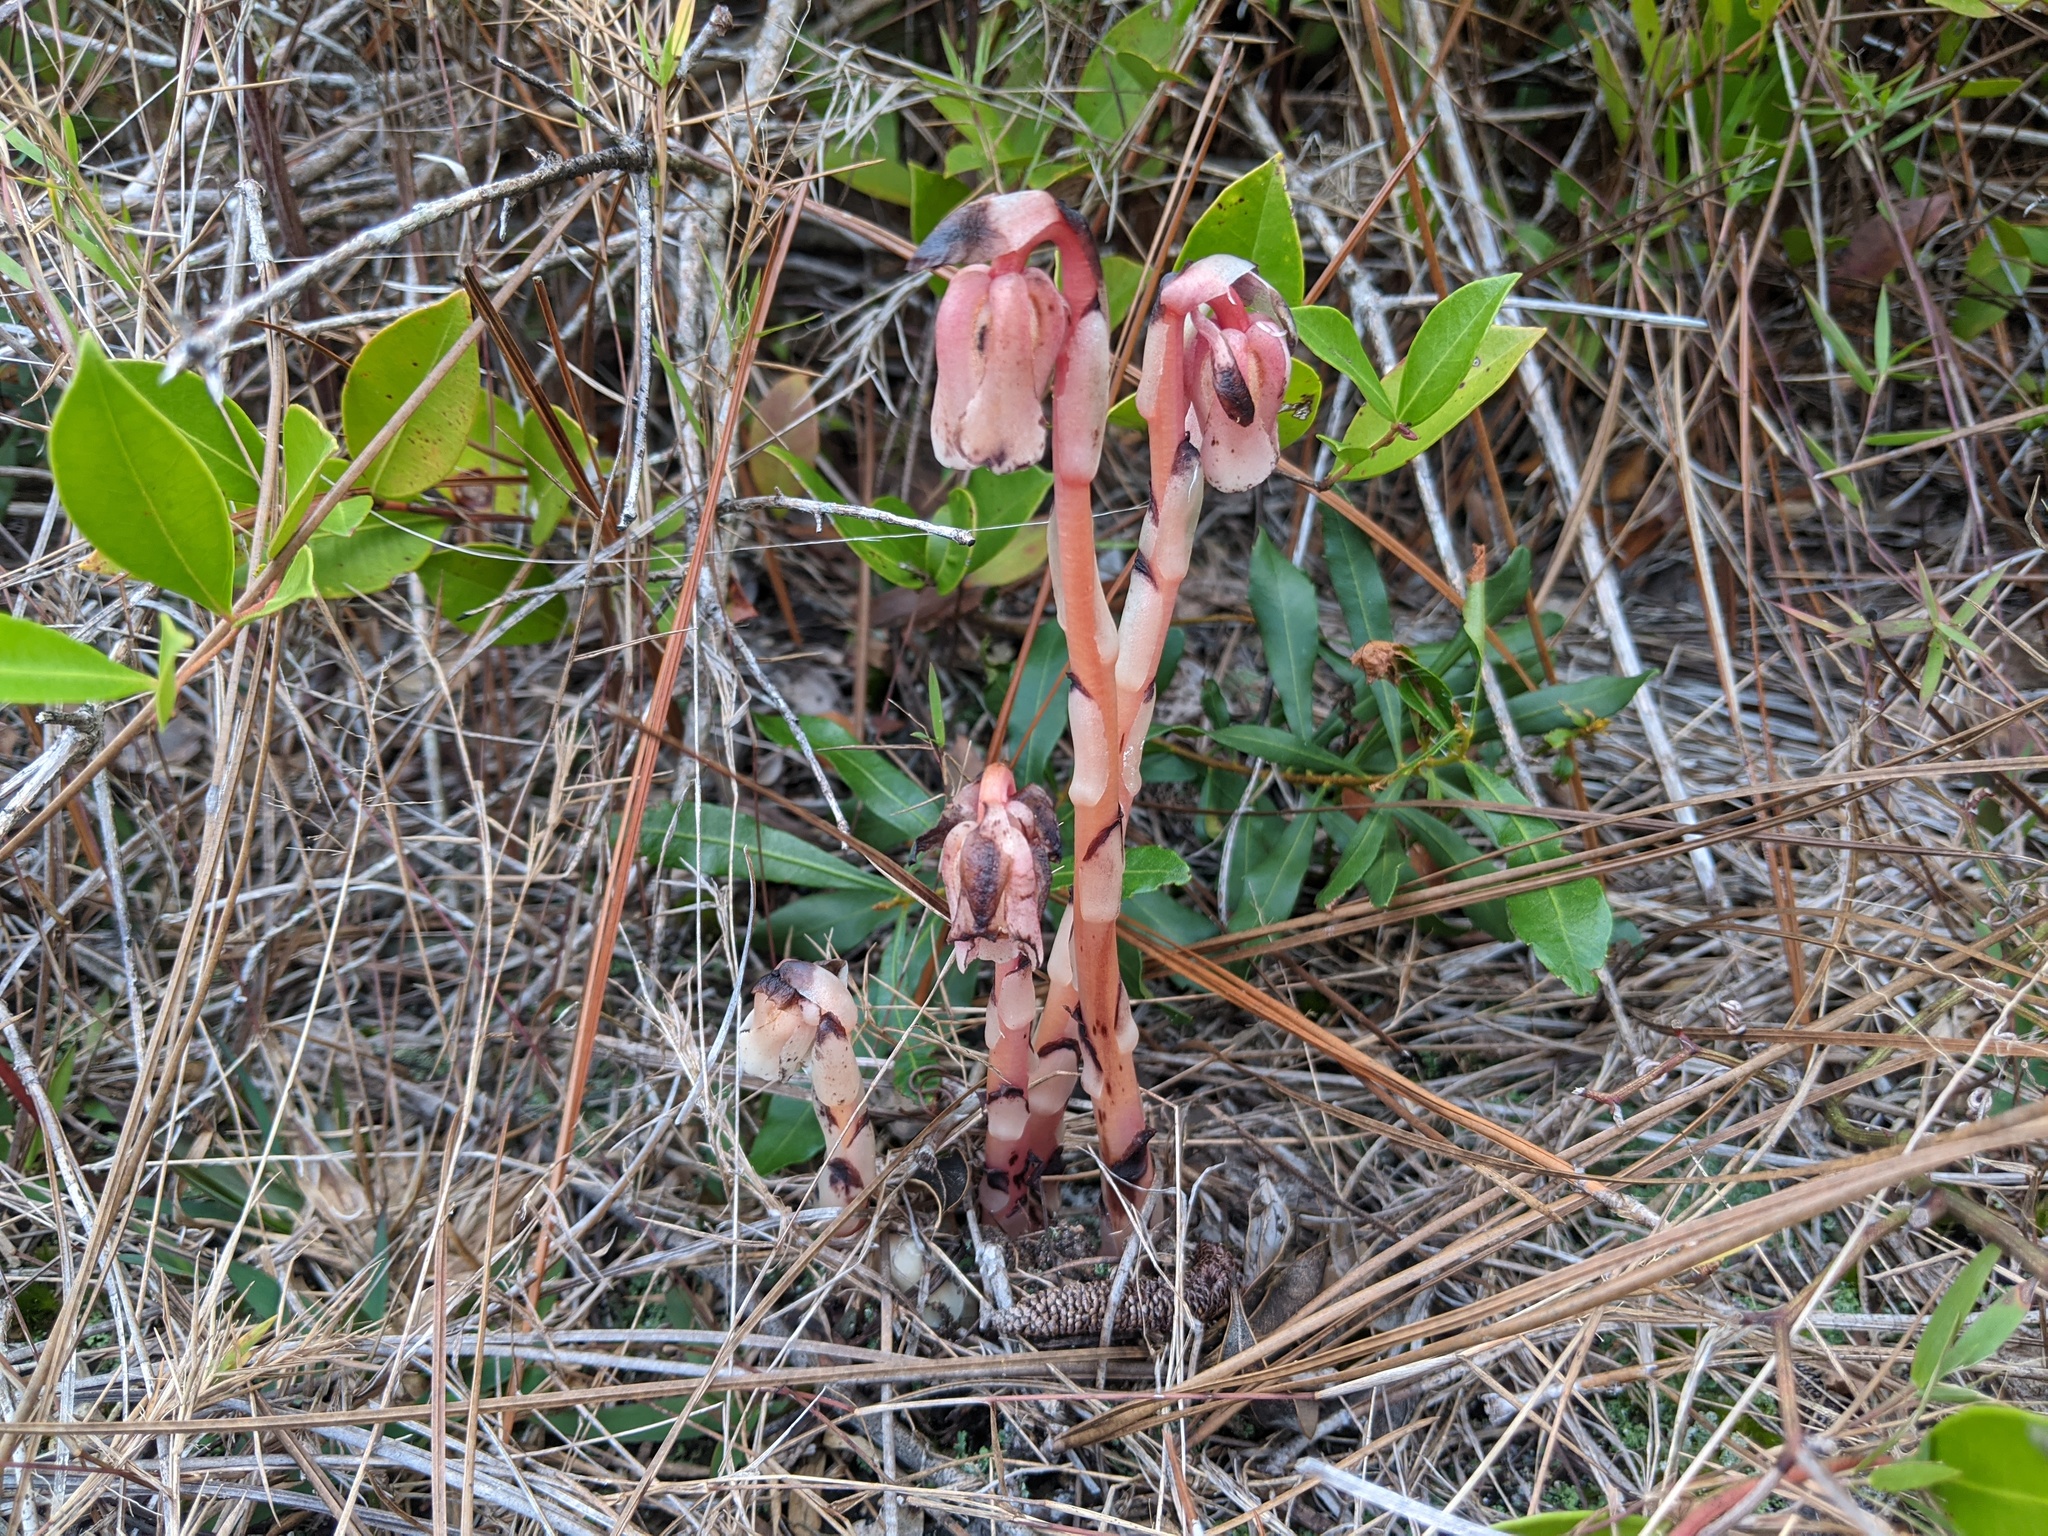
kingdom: Plantae
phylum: Tracheophyta
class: Magnoliopsida
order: Ericales
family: Ericaceae
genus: Monotropa
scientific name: Monotropa uniflora
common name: Convulsion root
